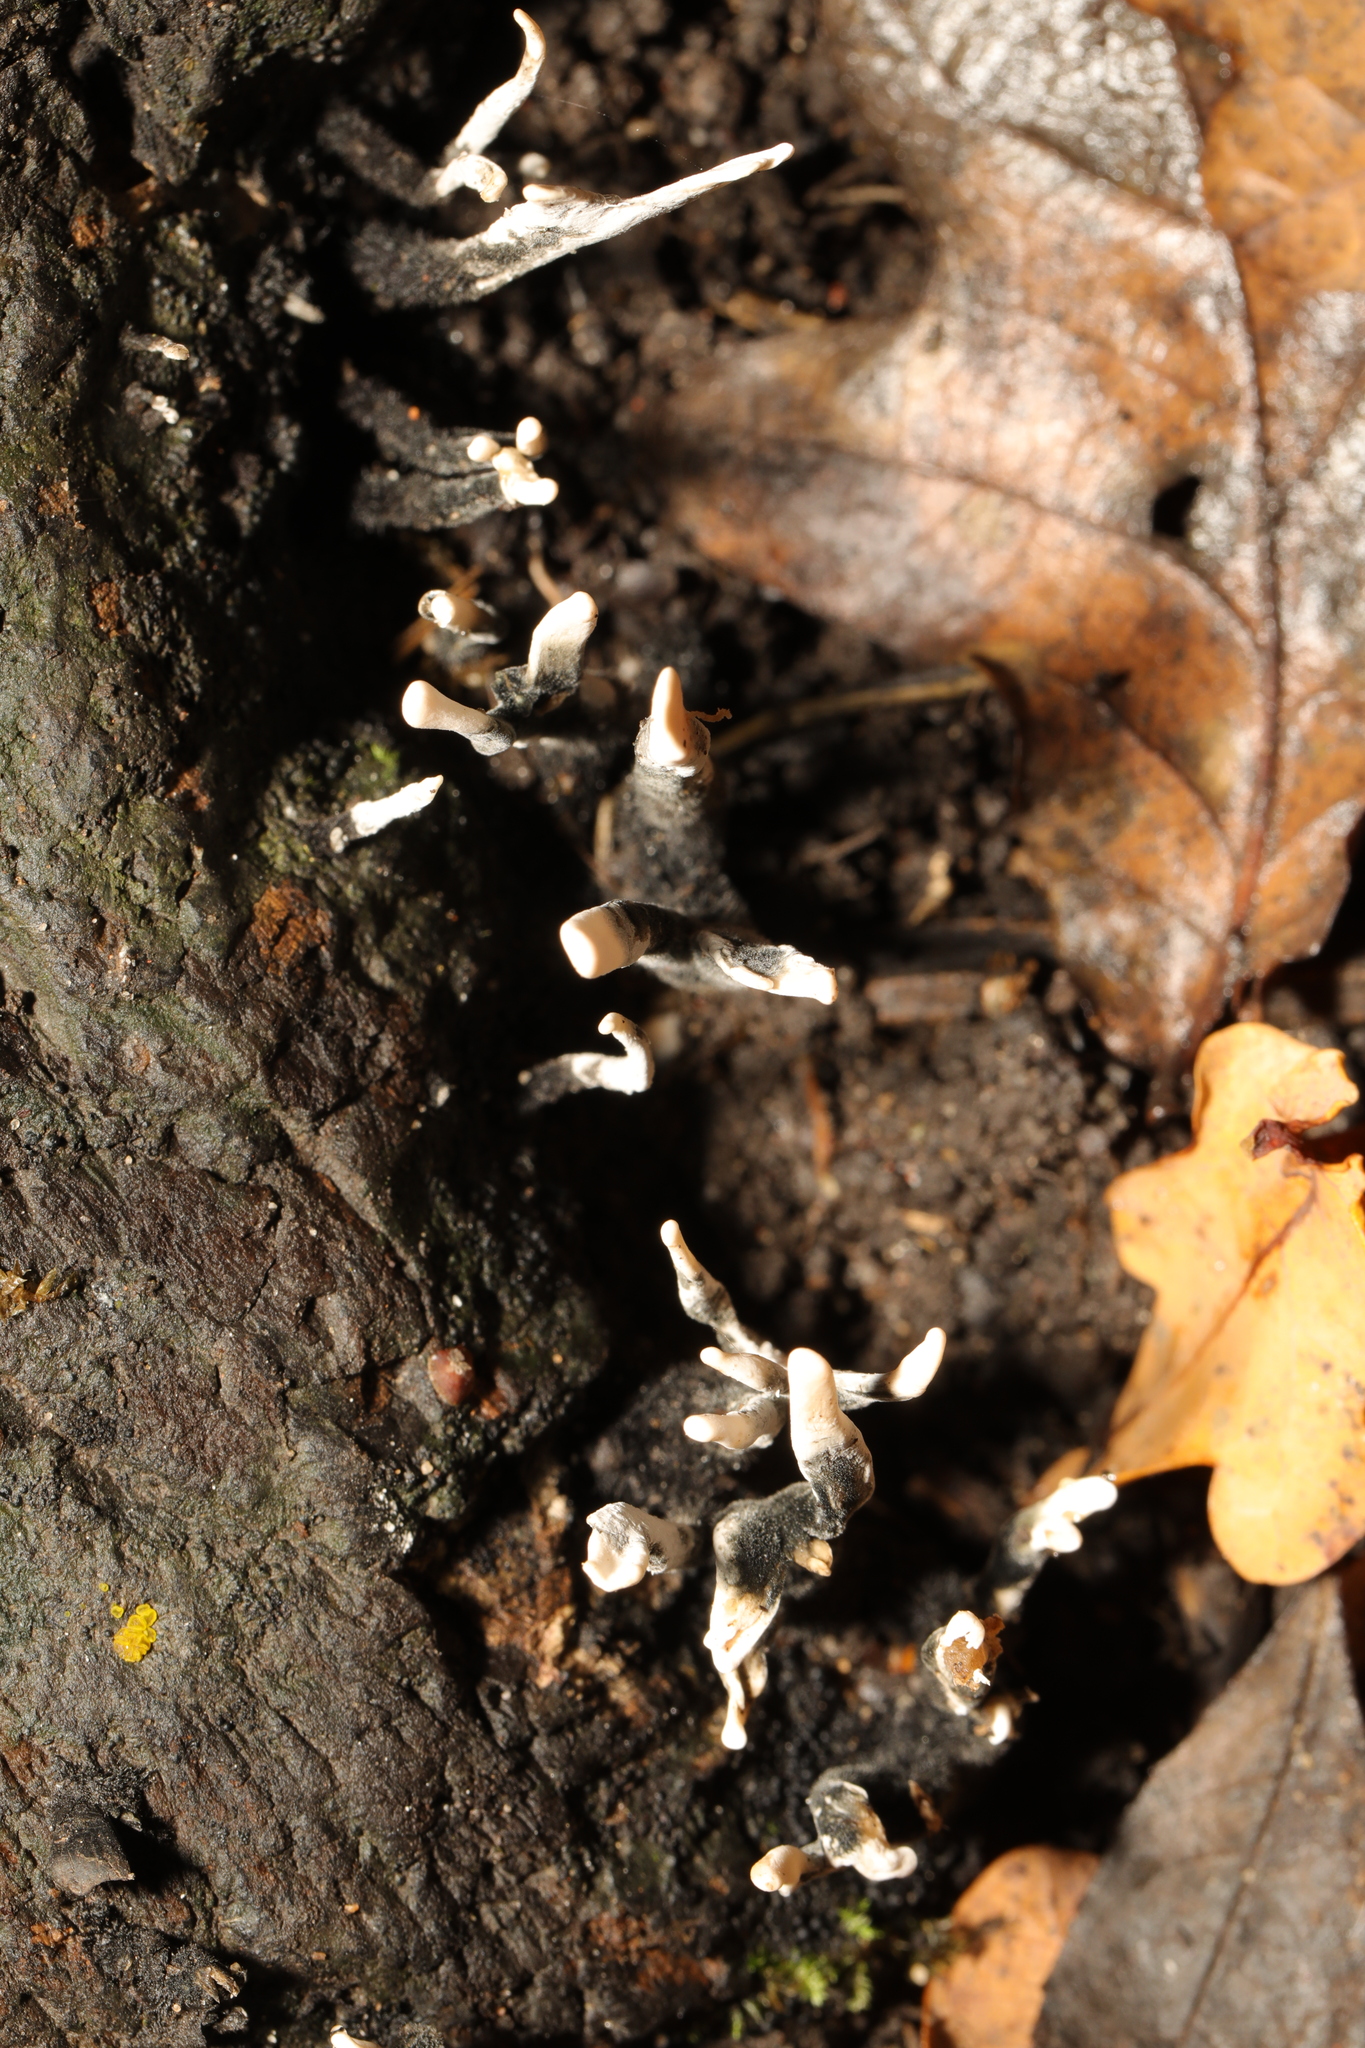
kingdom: Fungi
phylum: Ascomycota
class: Sordariomycetes
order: Xylariales
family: Xylariaceae
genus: Xylaria
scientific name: Xylaria hypoxylon
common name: Candle-snuff fungus
